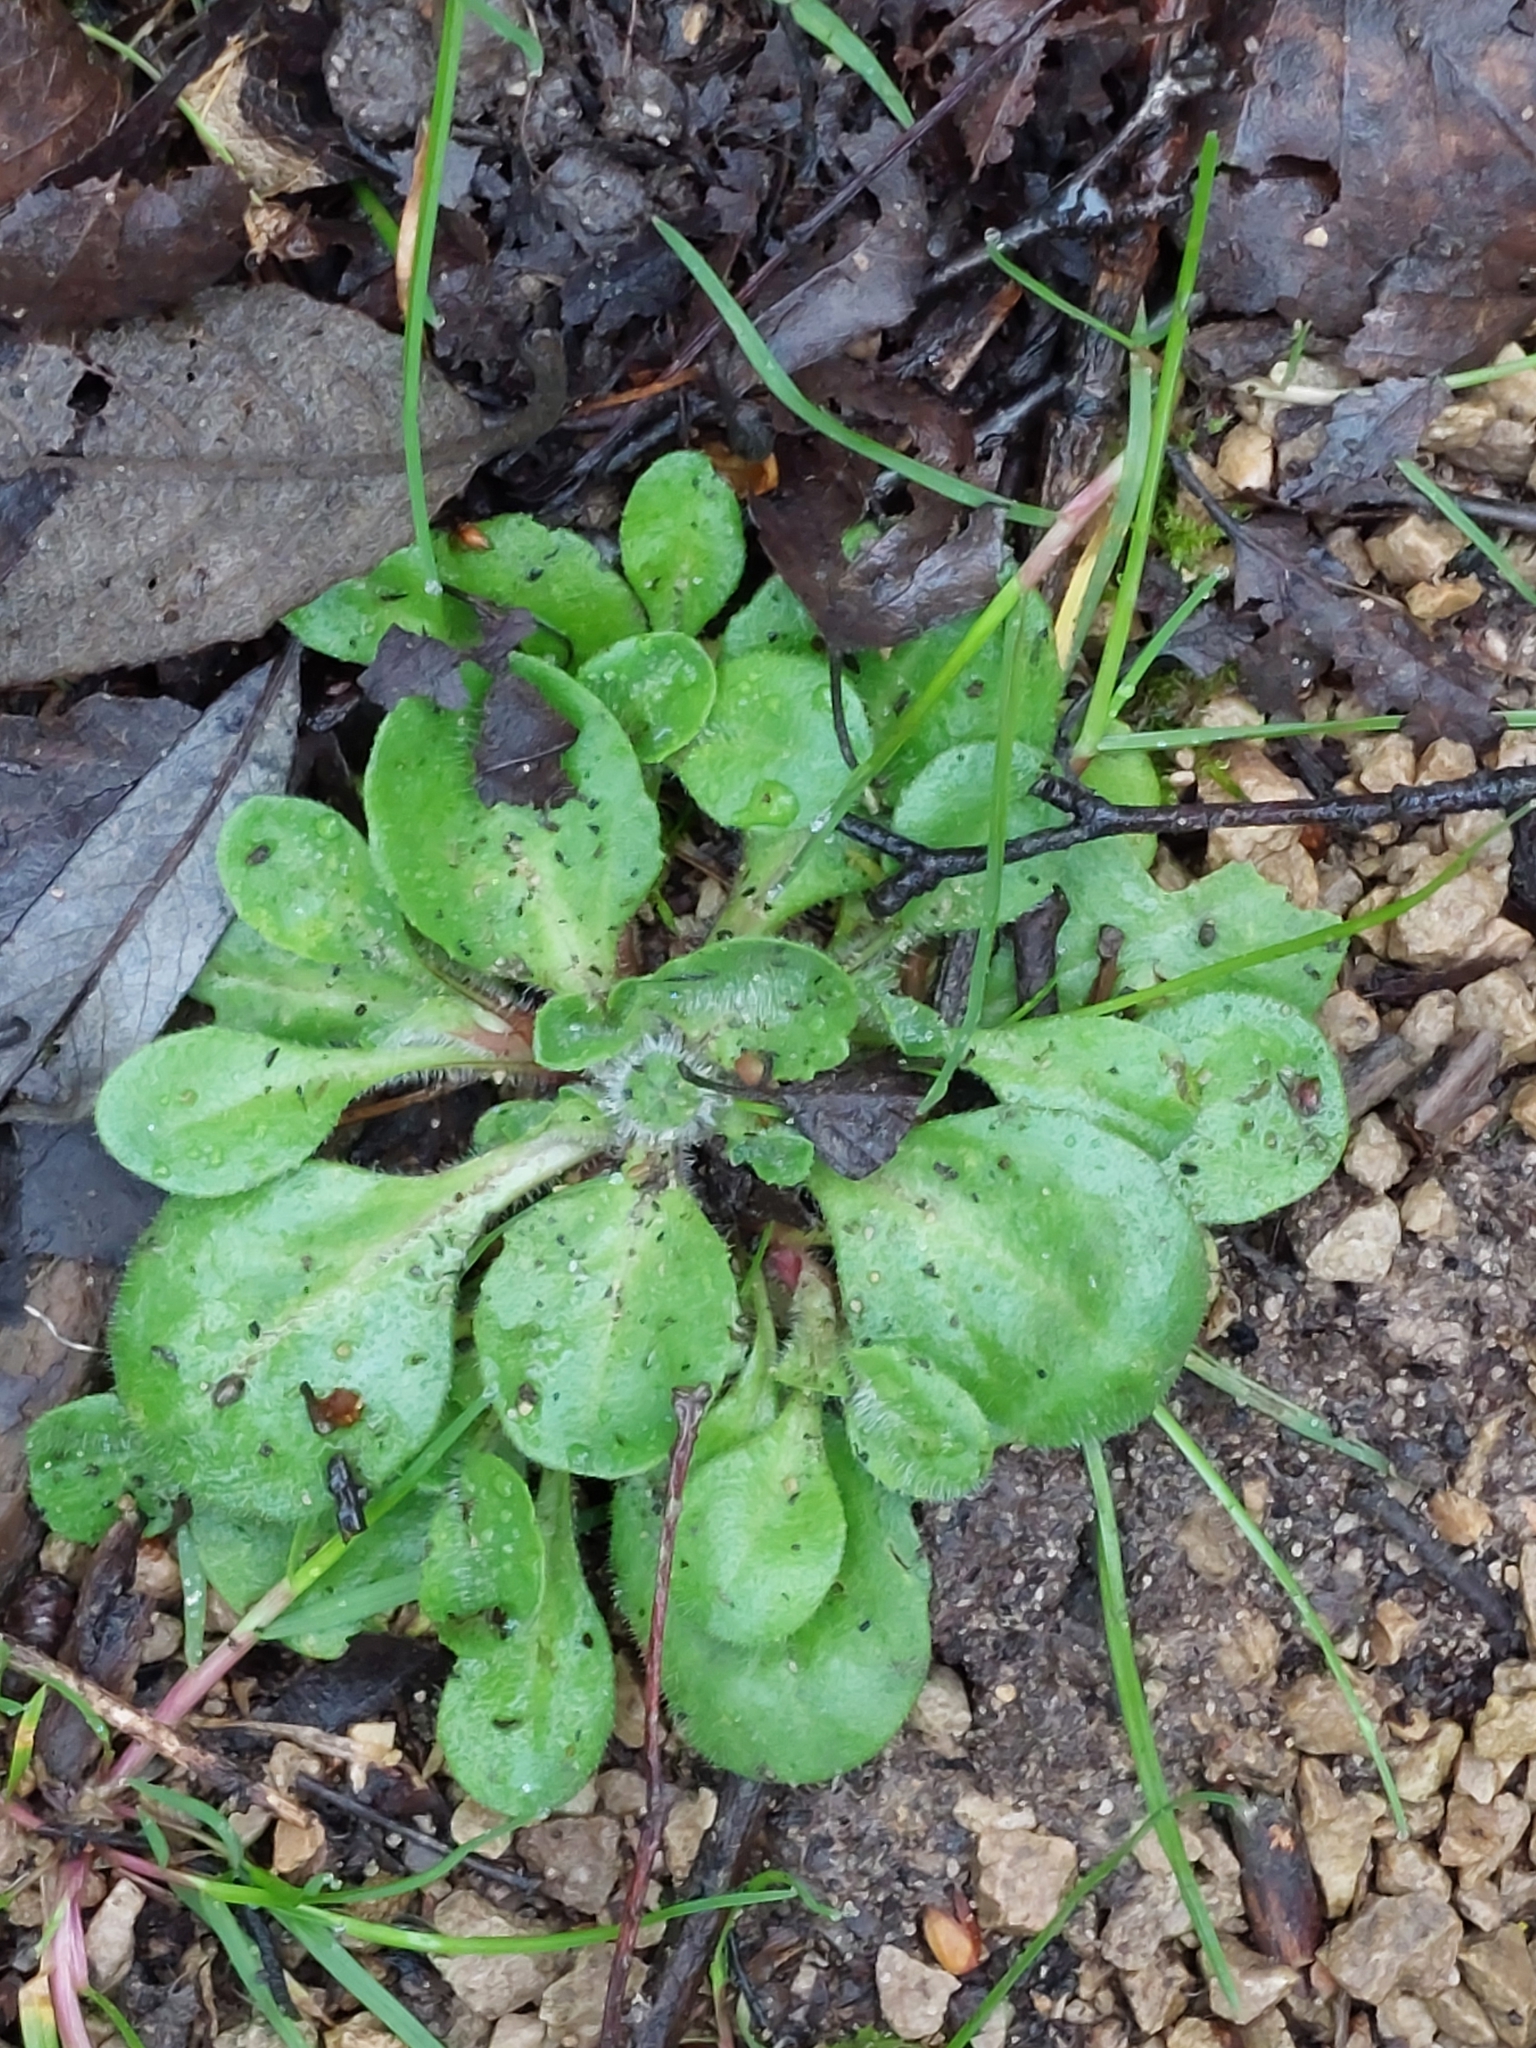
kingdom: Plantae
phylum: Tracheophyta
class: Magnoliopsida
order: Asterales
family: Asteraceae
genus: Bellis
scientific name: Bellis perennis
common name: Lawndaisy
